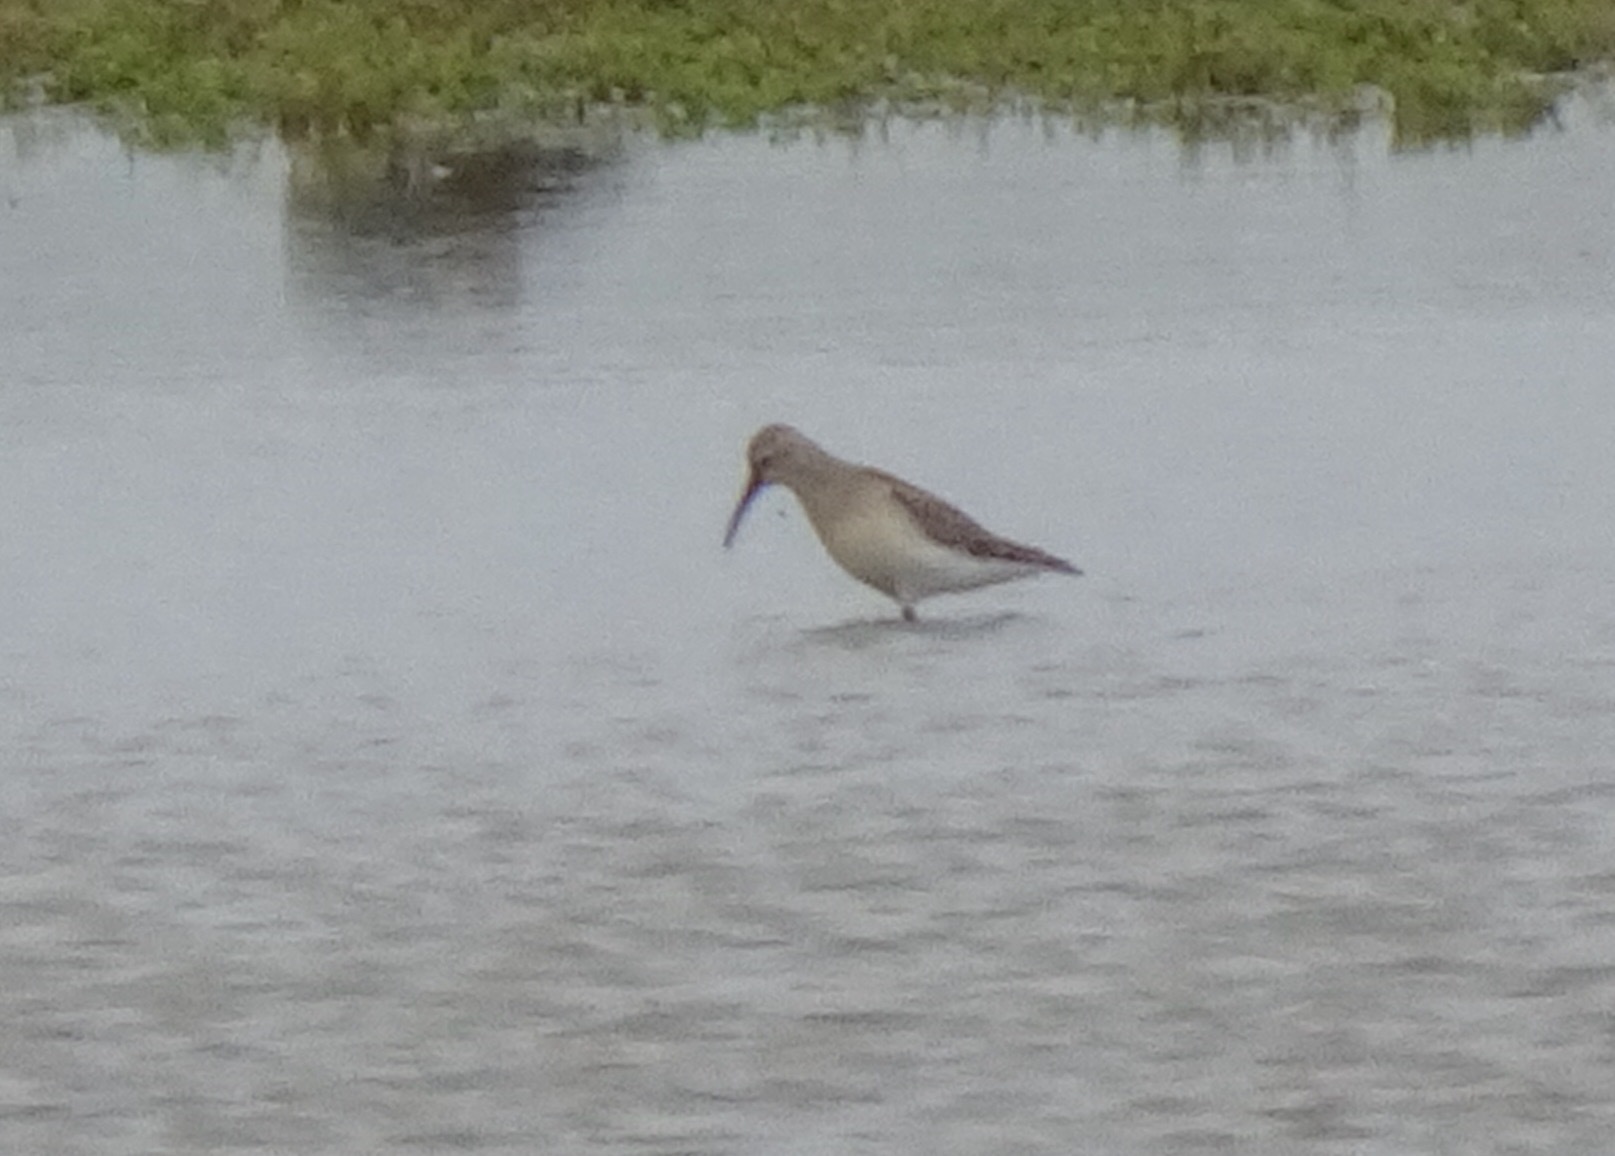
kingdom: Animalia
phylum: Chordata
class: Aves
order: Charadriiformes
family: Scolopacidae
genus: Calidris
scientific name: Calidris ferruginea
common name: Curlew sandpiper
